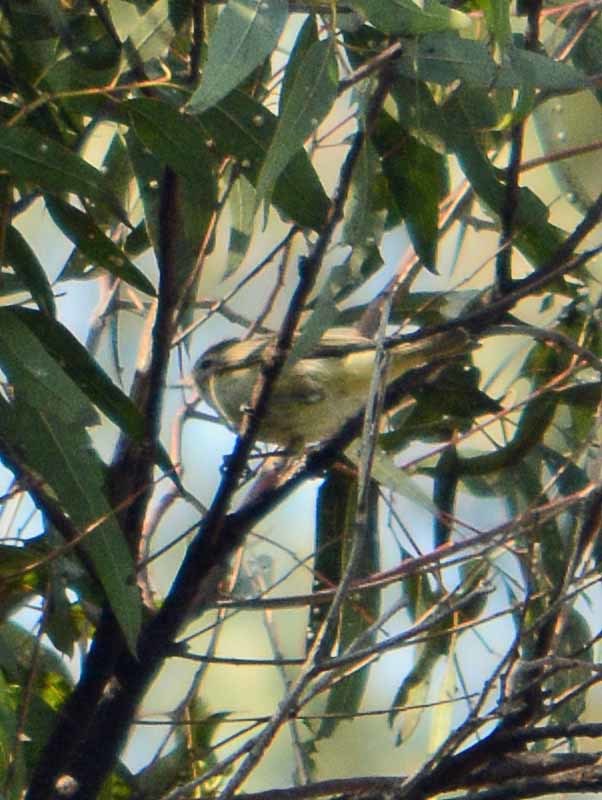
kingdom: Animalia
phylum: Chordata
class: Aves
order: Passeriformes
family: Vireonidae
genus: Vireo
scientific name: Vireo gilvus
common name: Warbling vireo
